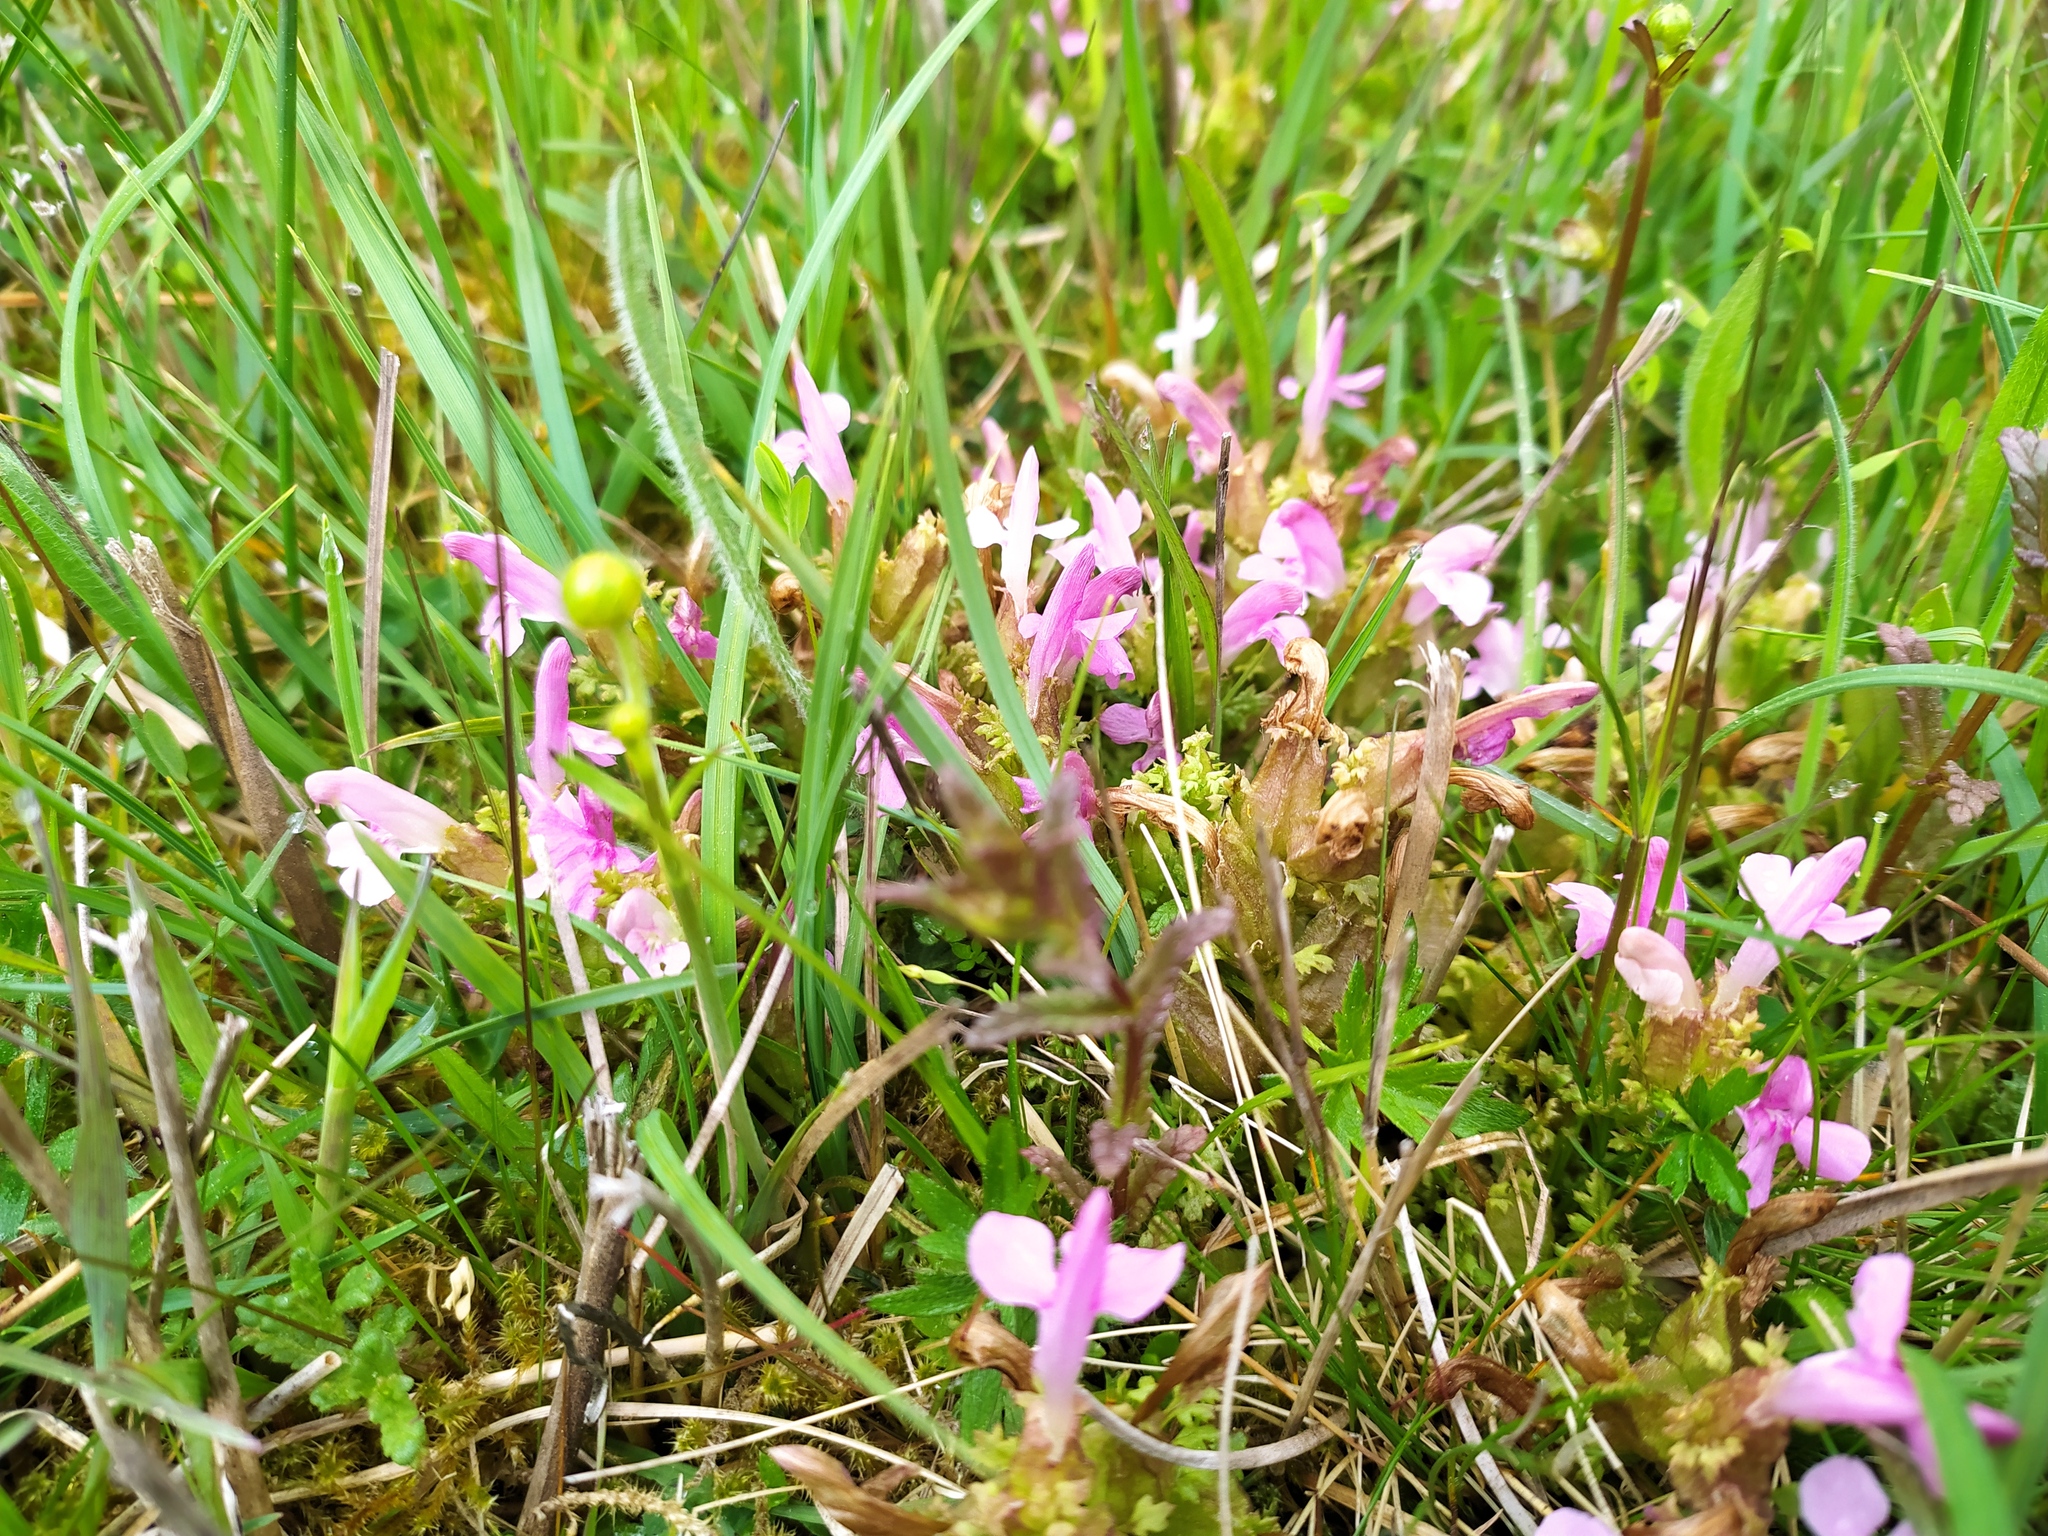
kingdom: Plantae
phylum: Tracheophyta
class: Magnoliopsida
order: Lamiales
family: Orobanchaceae
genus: Pedicularis
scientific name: Pedicularis sylvatica
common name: Lousewort
